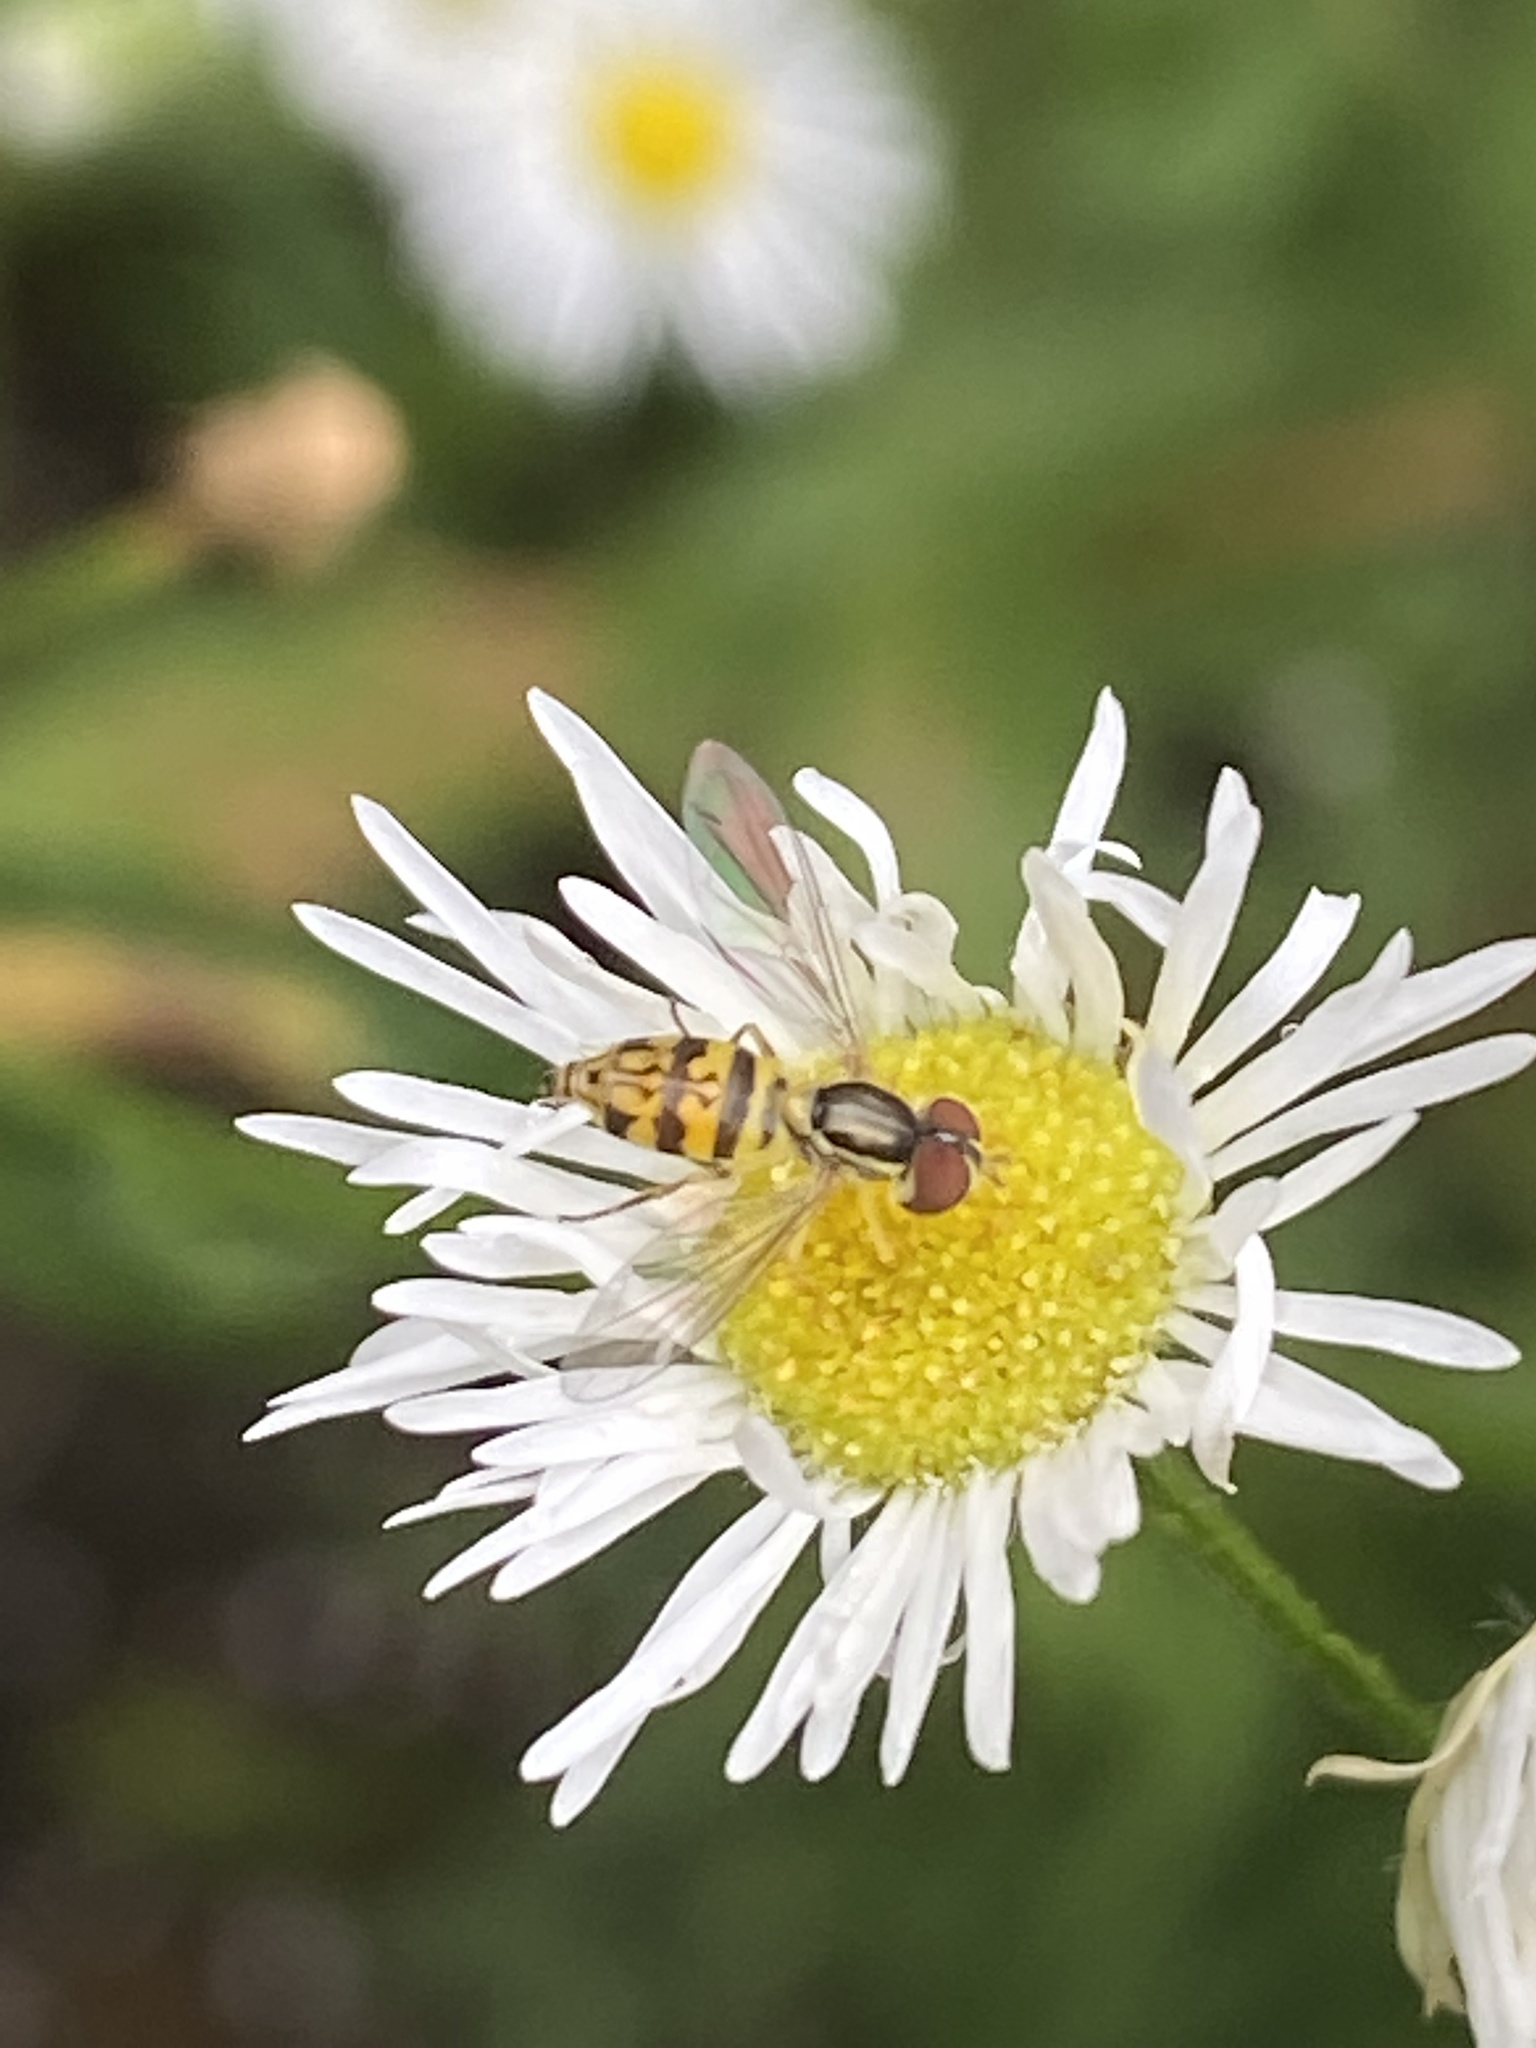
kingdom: Animalia
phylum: Arthropoda
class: Insecta
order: Diptera
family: Syrphidae
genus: Toxomerus
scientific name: Toxomerus geminatus
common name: Eastern calligrapher
